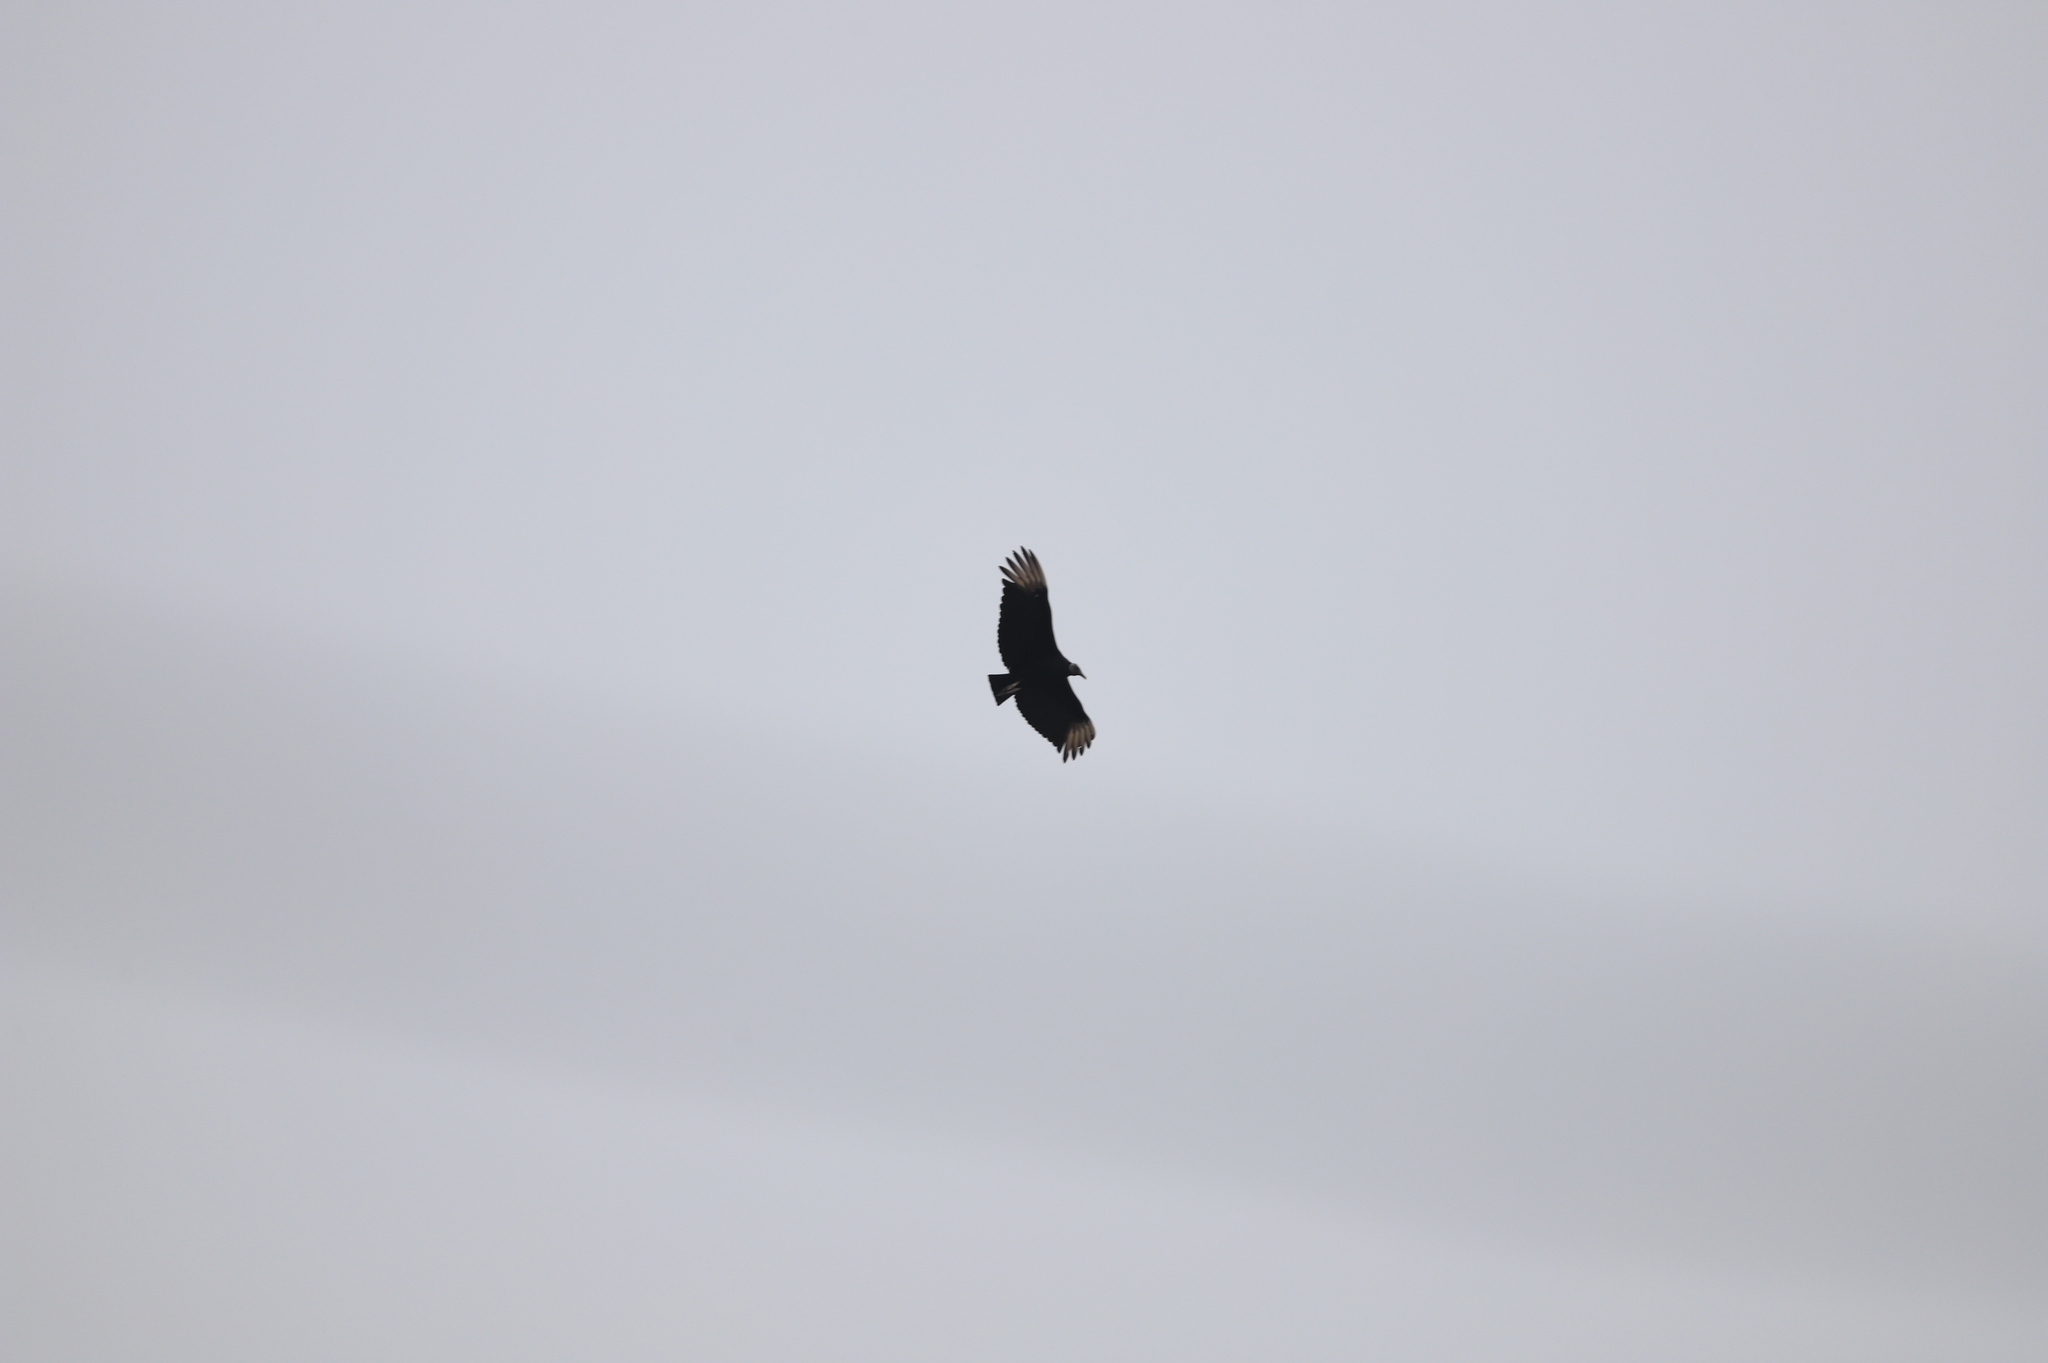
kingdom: Animalia
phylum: Chordata
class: Aves
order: Accipitriformes
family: Cathartidae
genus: Coragyps
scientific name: Coragyps atratus
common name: Black vulture
